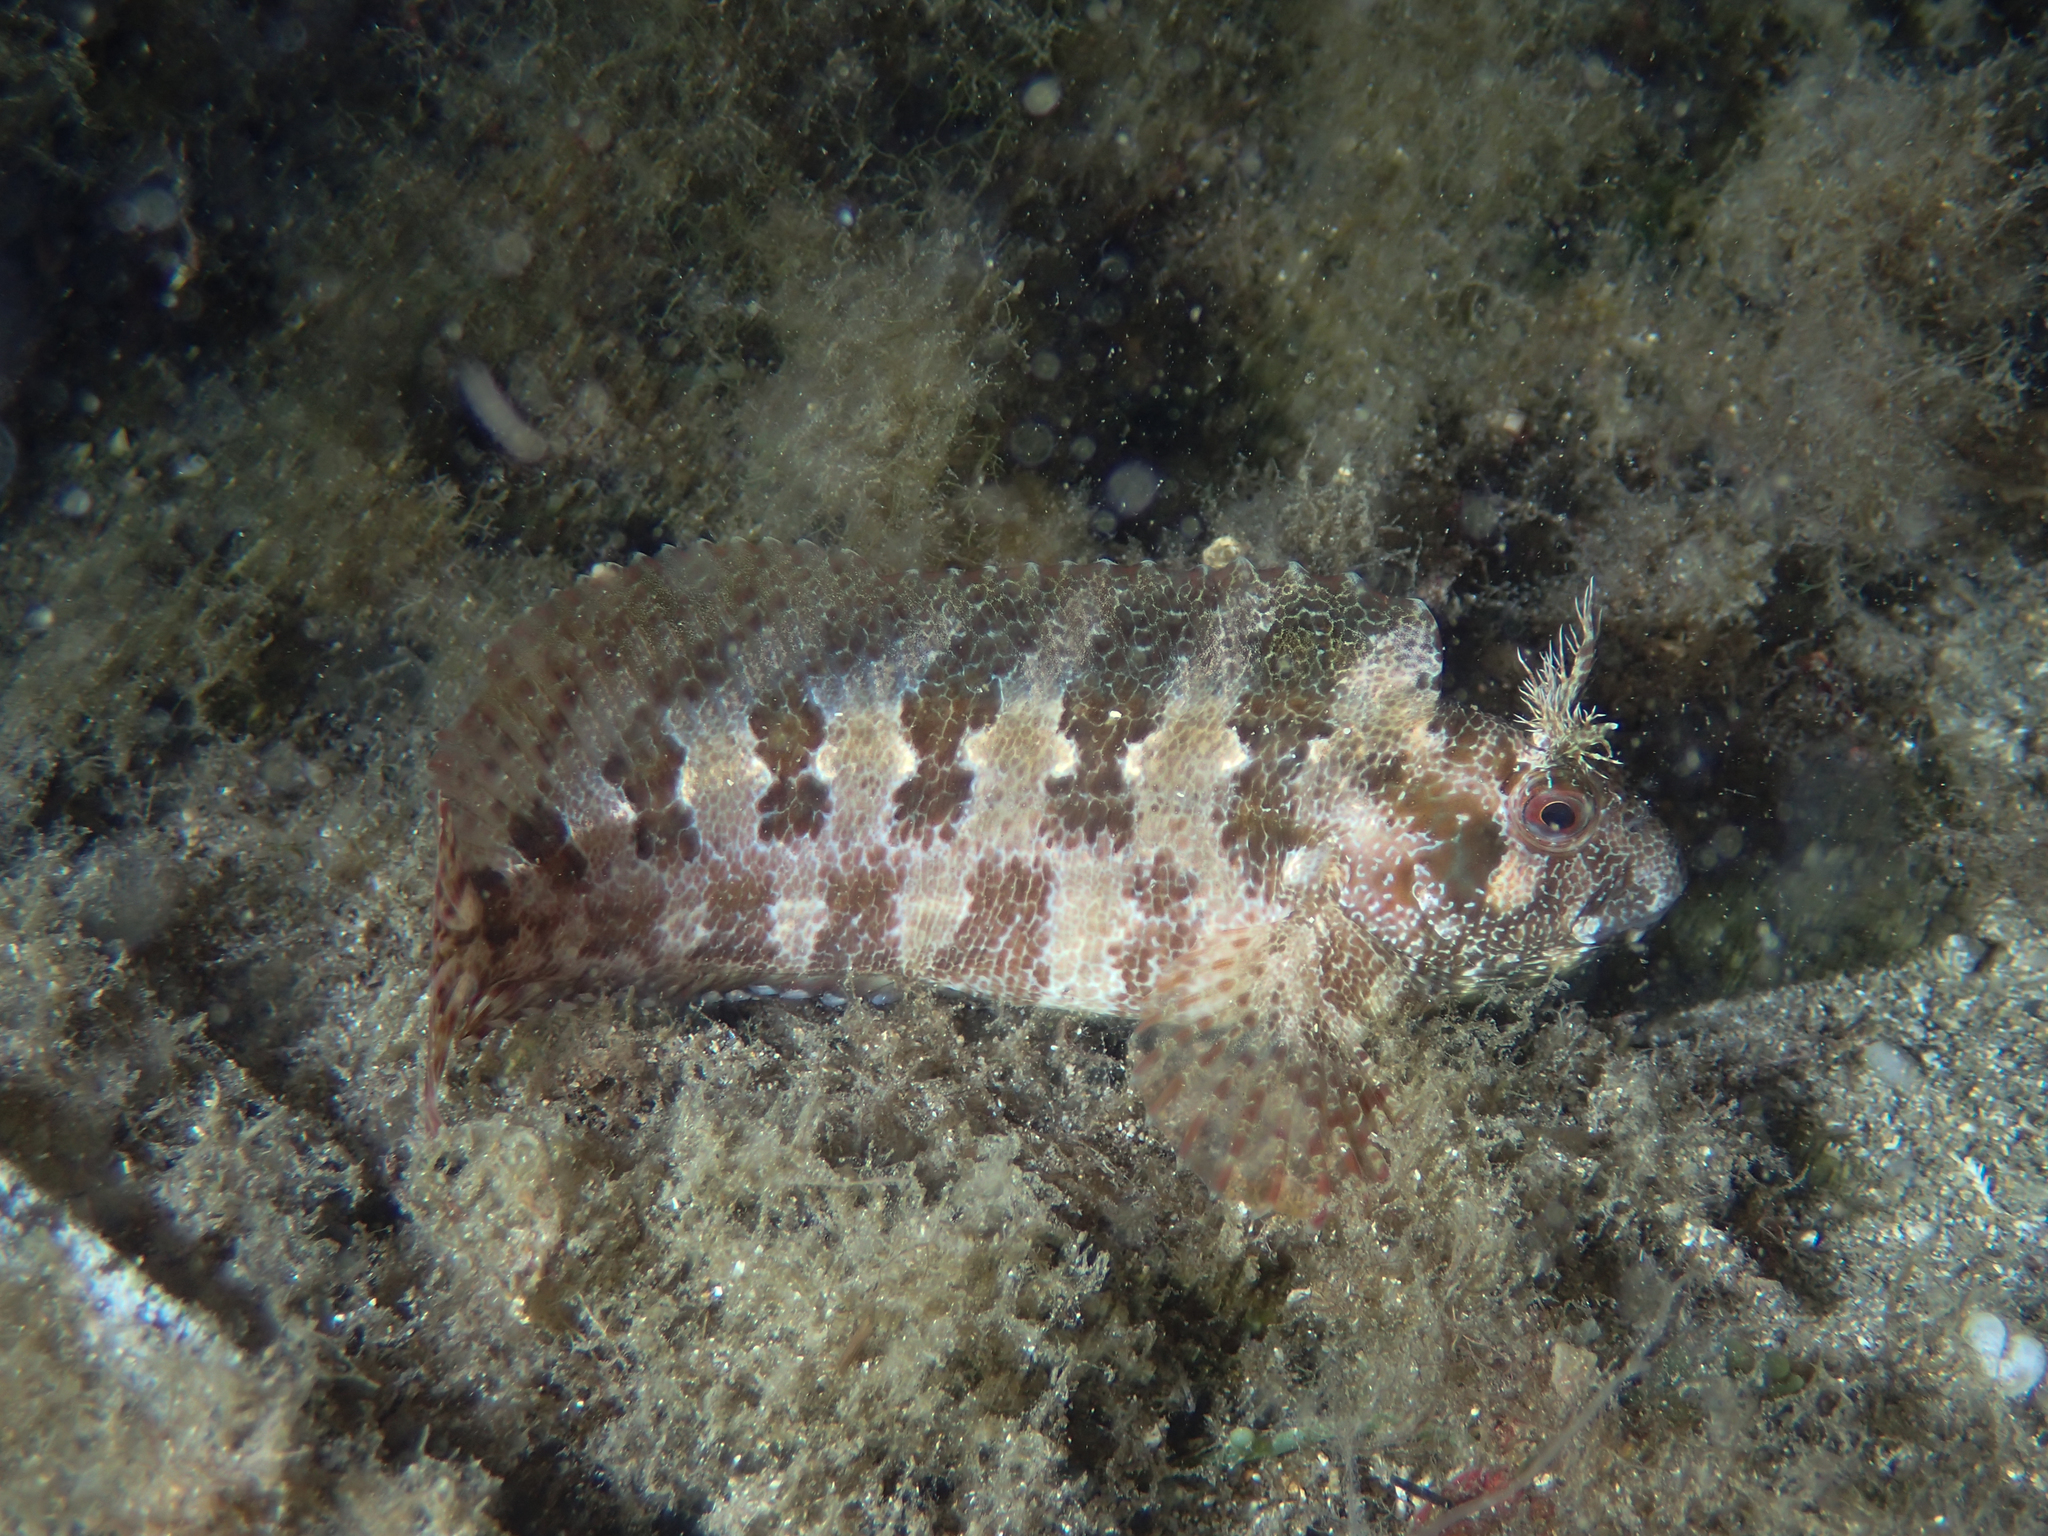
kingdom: Animalia
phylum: Chordata
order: Perciformes
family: Blenniidae
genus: Parablennius
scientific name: Parablennius gattorugine
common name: Tompot blenny
